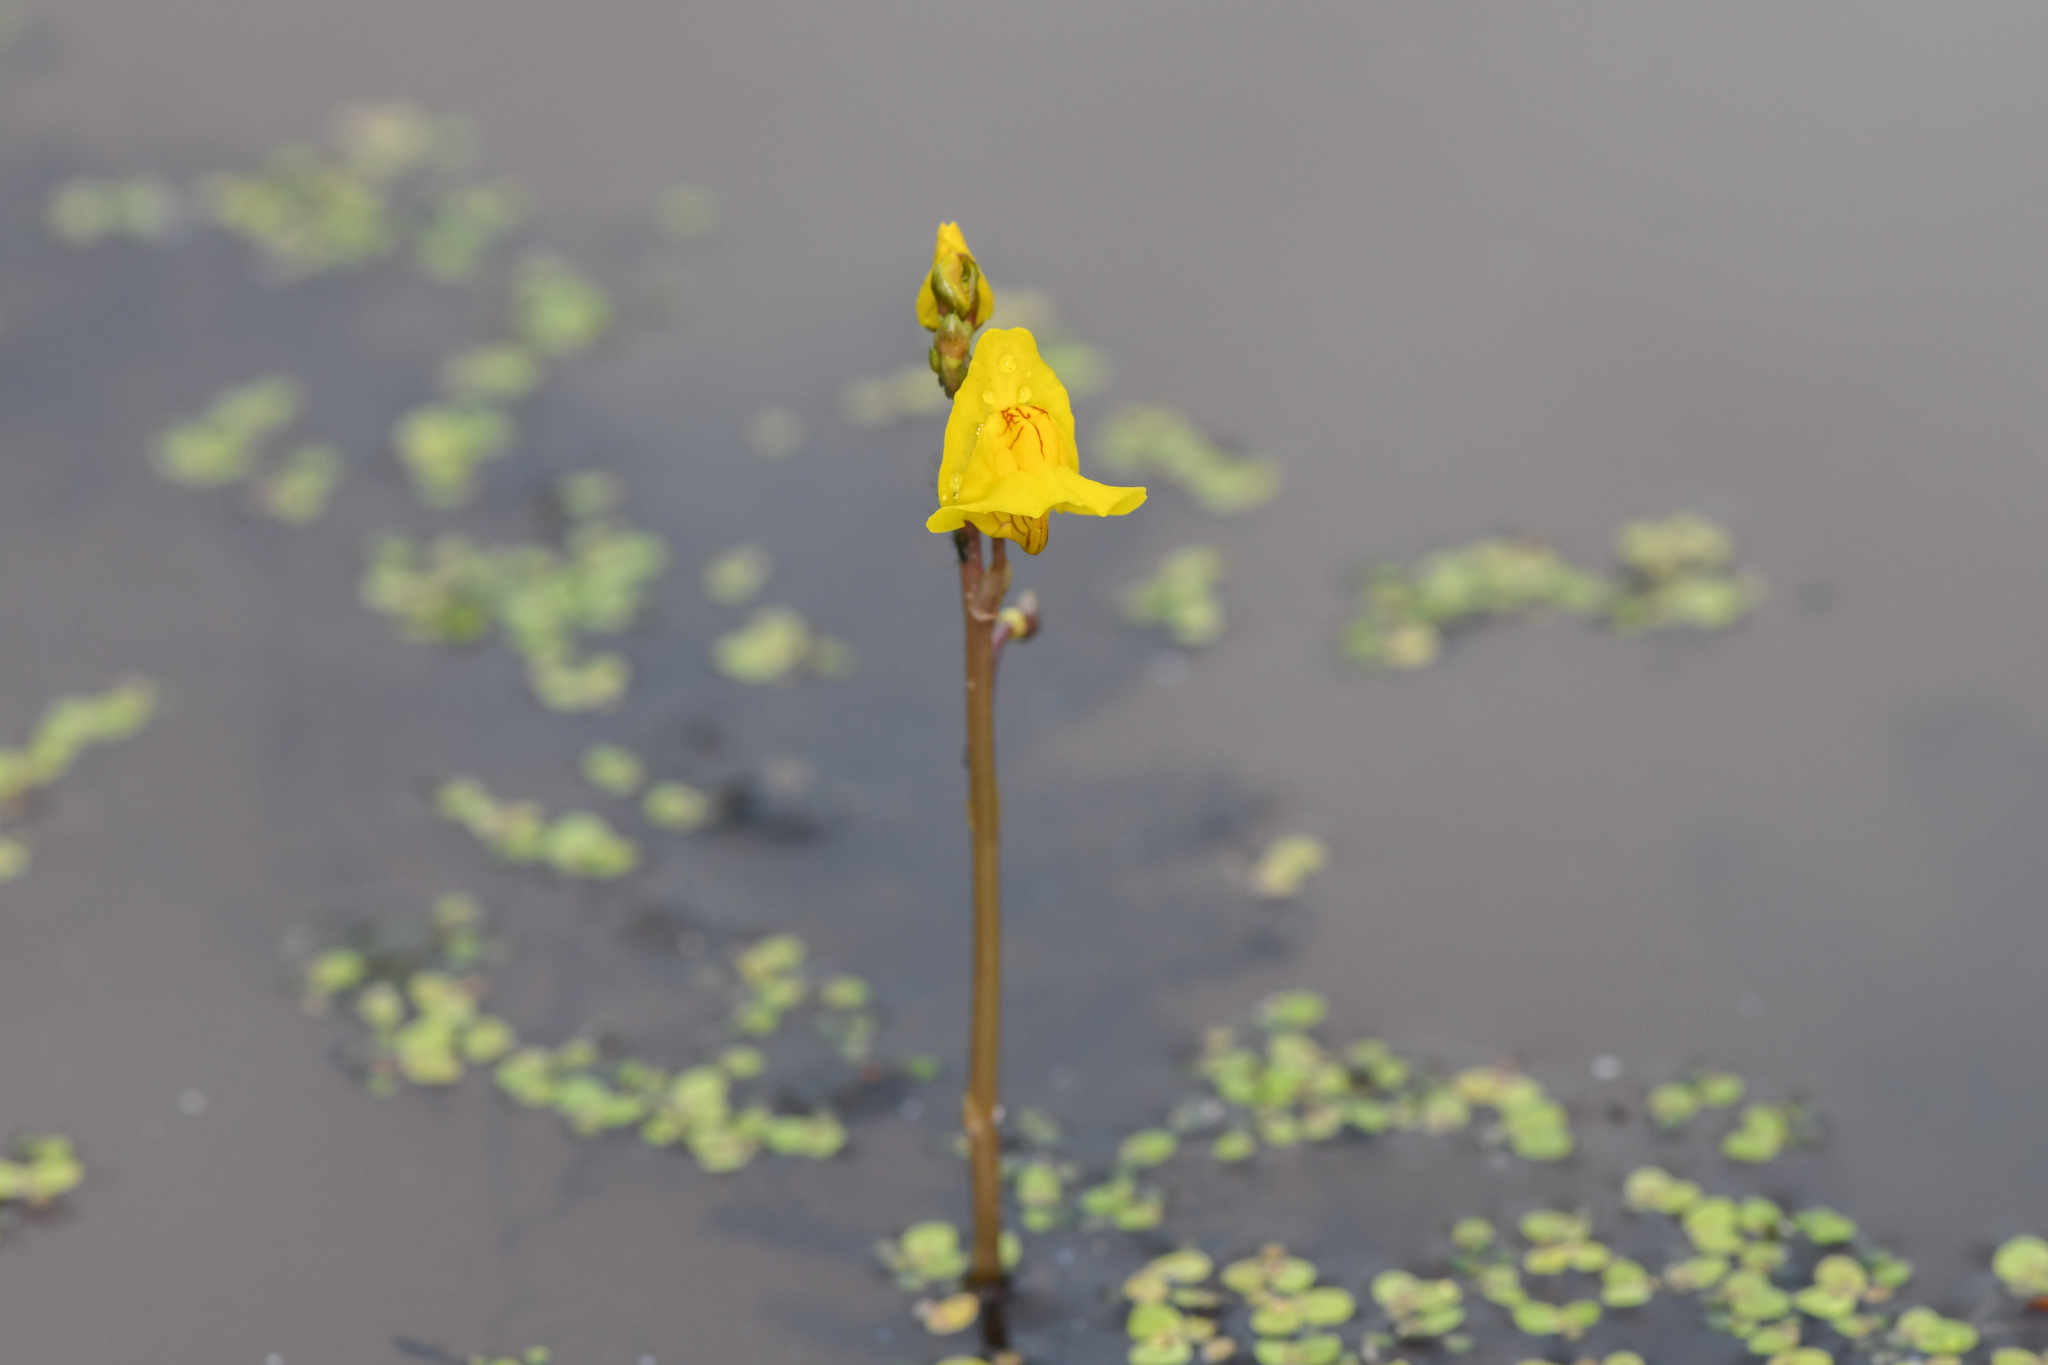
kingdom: Plantae
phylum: Tracheophyta
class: Magnoliopsida
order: Lamiales
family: Lentibulariaceae
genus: Utricularia
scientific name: Utricularia macrorhiza
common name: Common bladderwort
